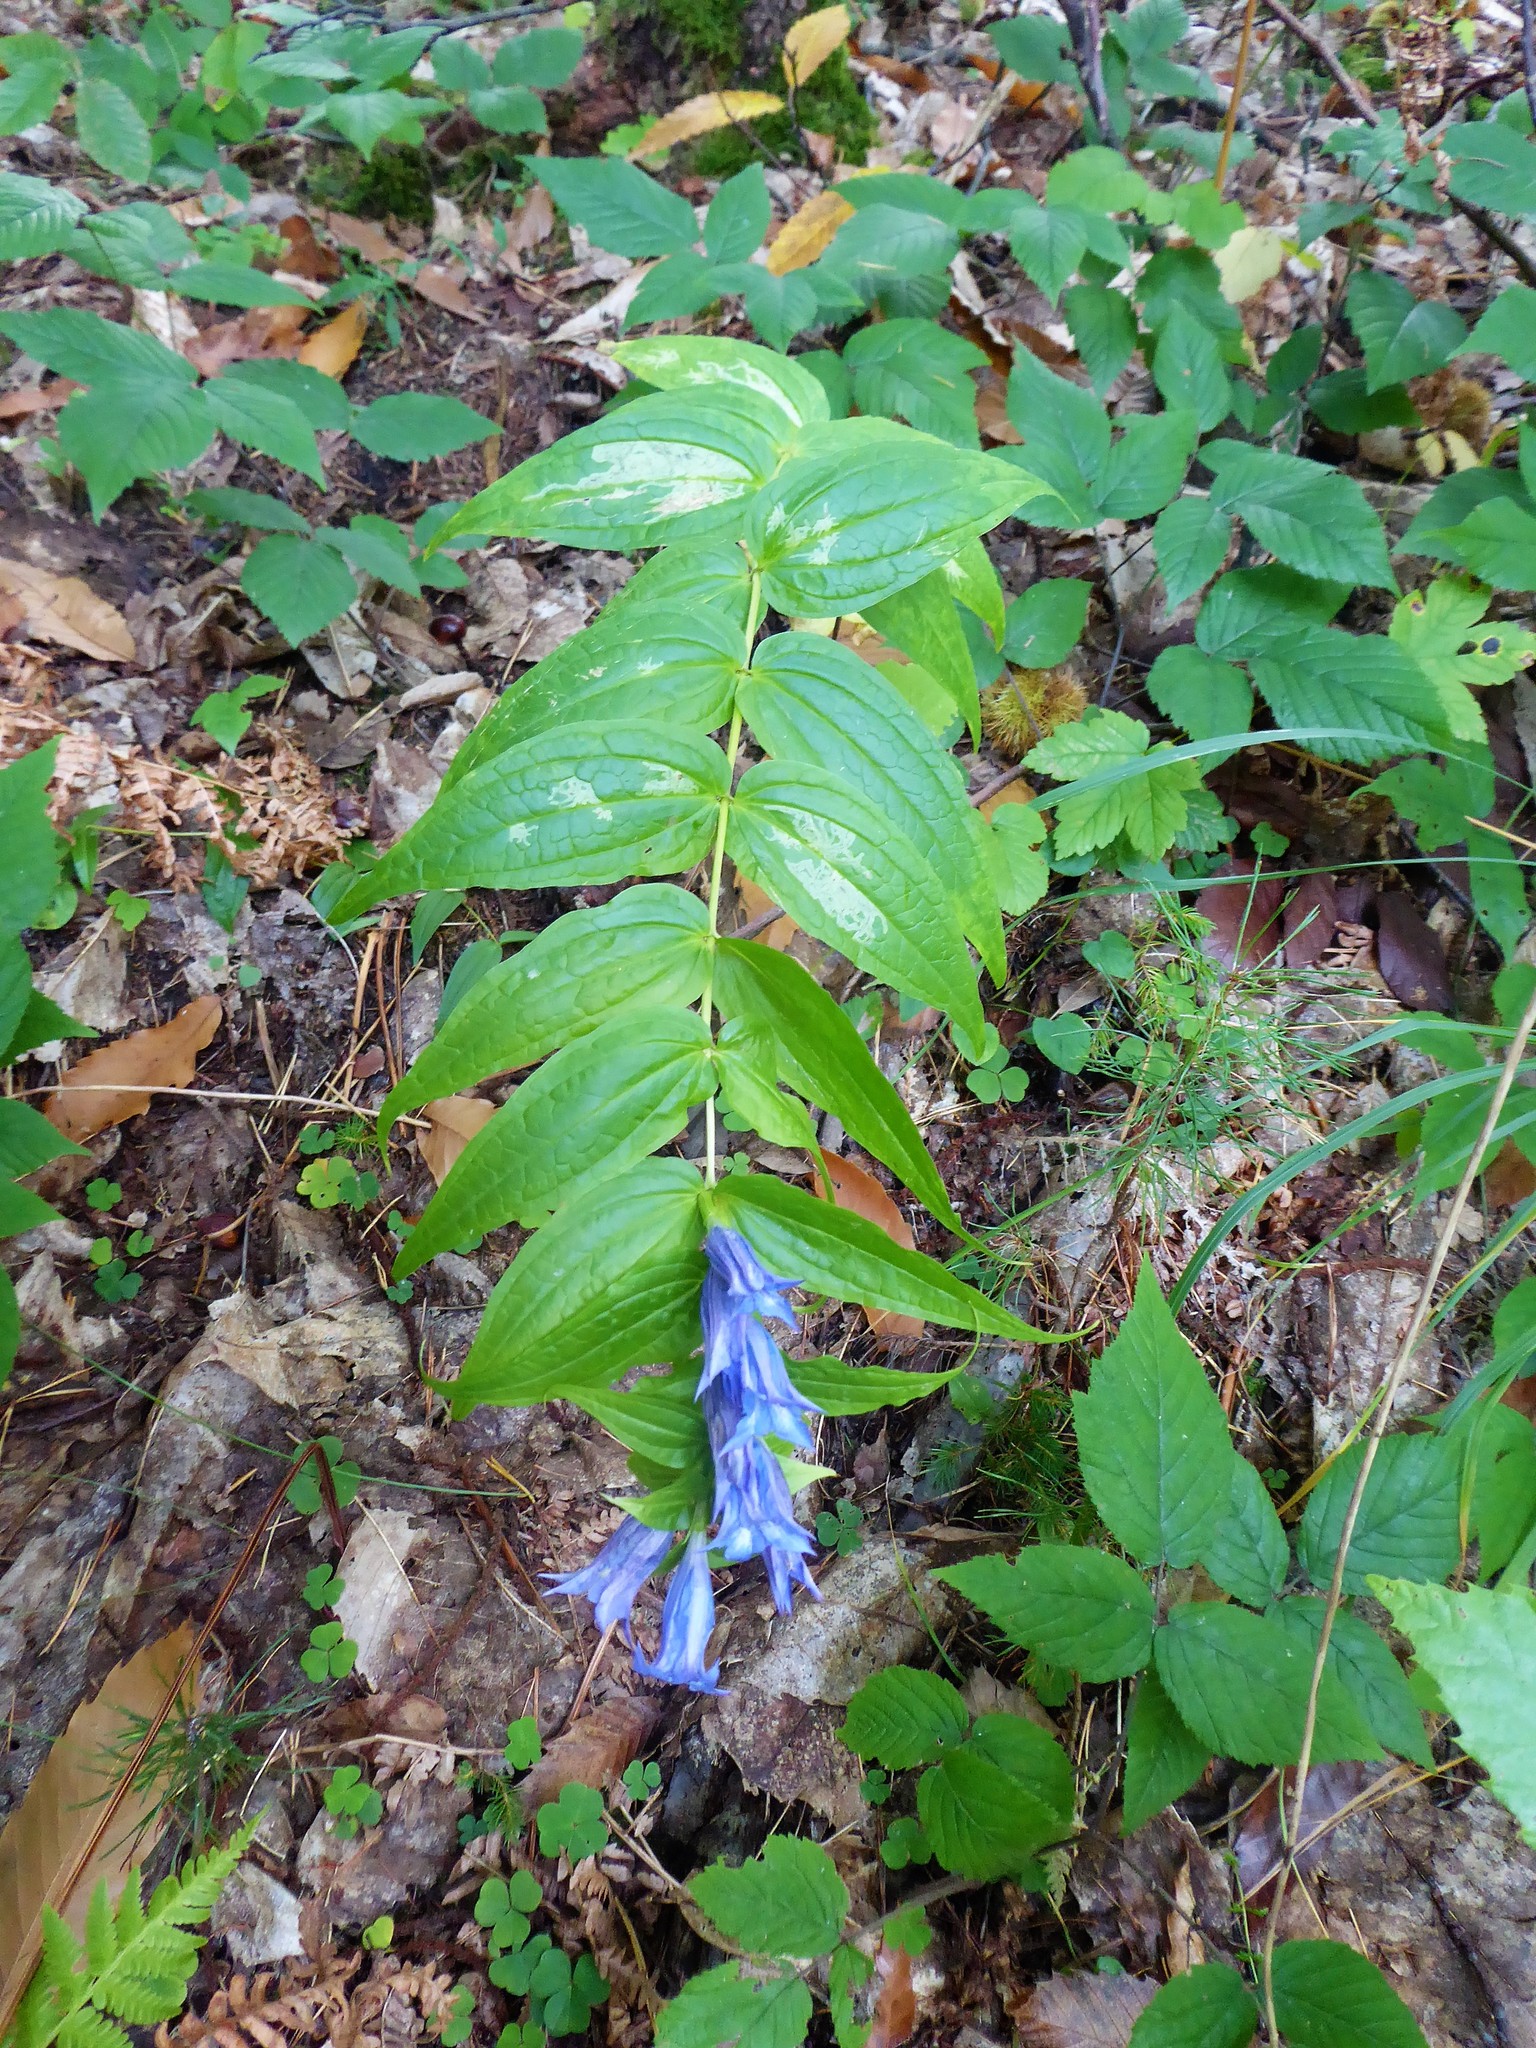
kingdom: Plantae
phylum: Tracheophyta
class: Magnoliopsida
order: Gentianales
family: Gentianaceae
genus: Gentiana
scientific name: Gentiana asclepiadea
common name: Willow gentian
